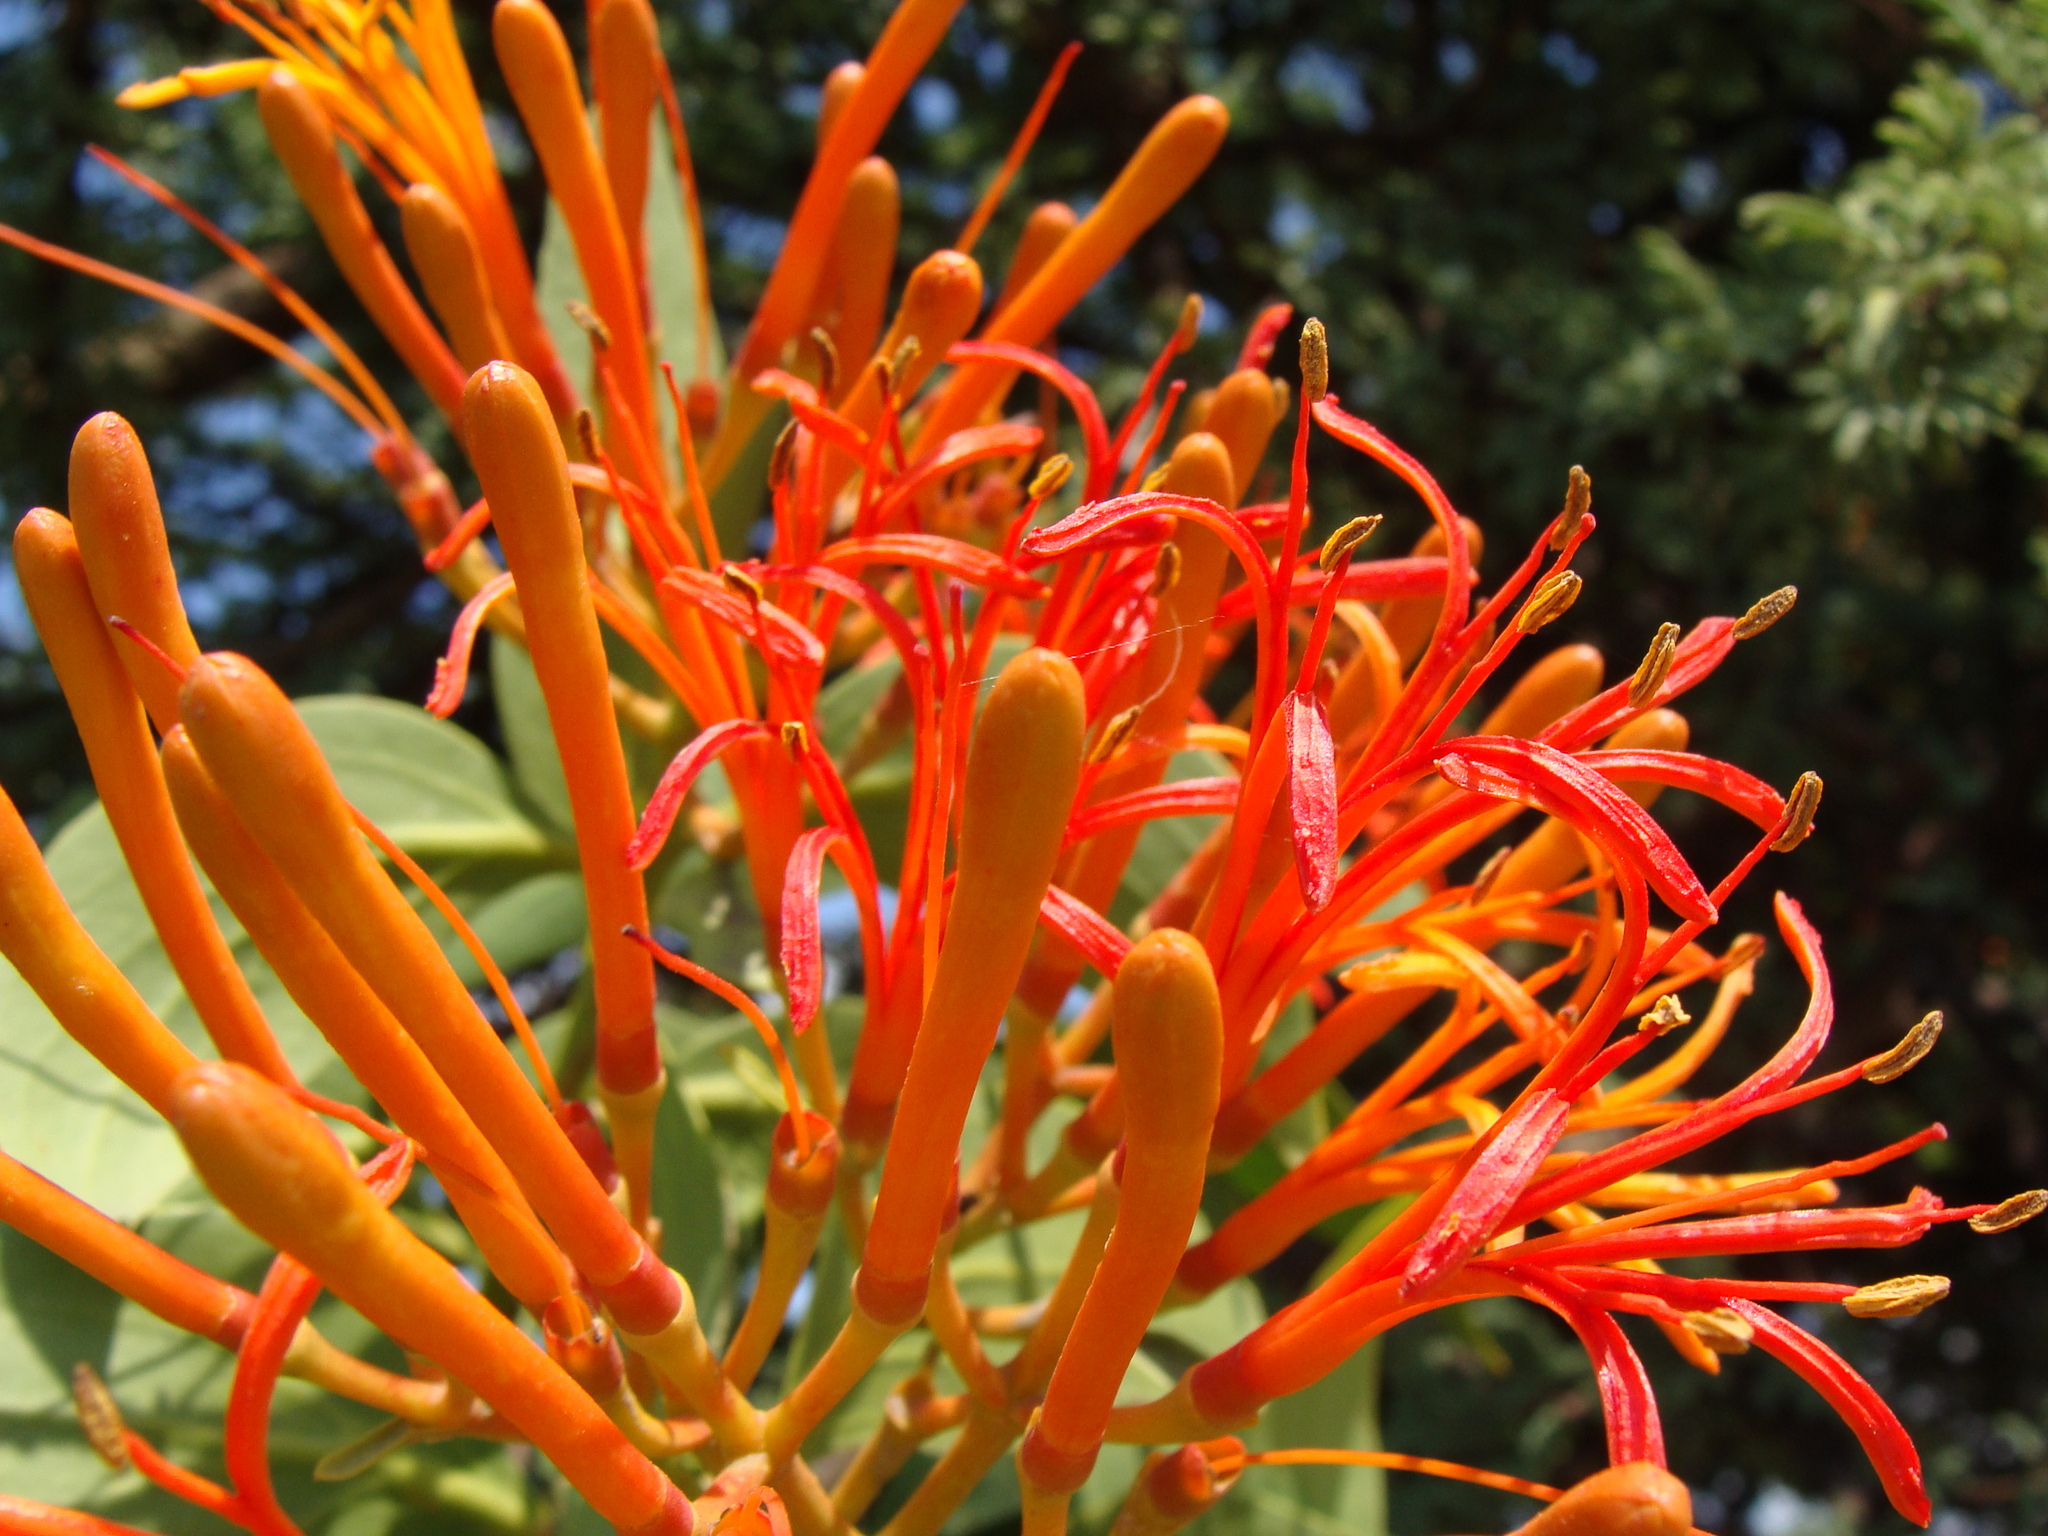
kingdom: Plantae
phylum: Tracheophyta
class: Magnoliopsida
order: Santalales
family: Loranthaceae
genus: Psittacanthus
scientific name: Psittacanthus calyculatus
